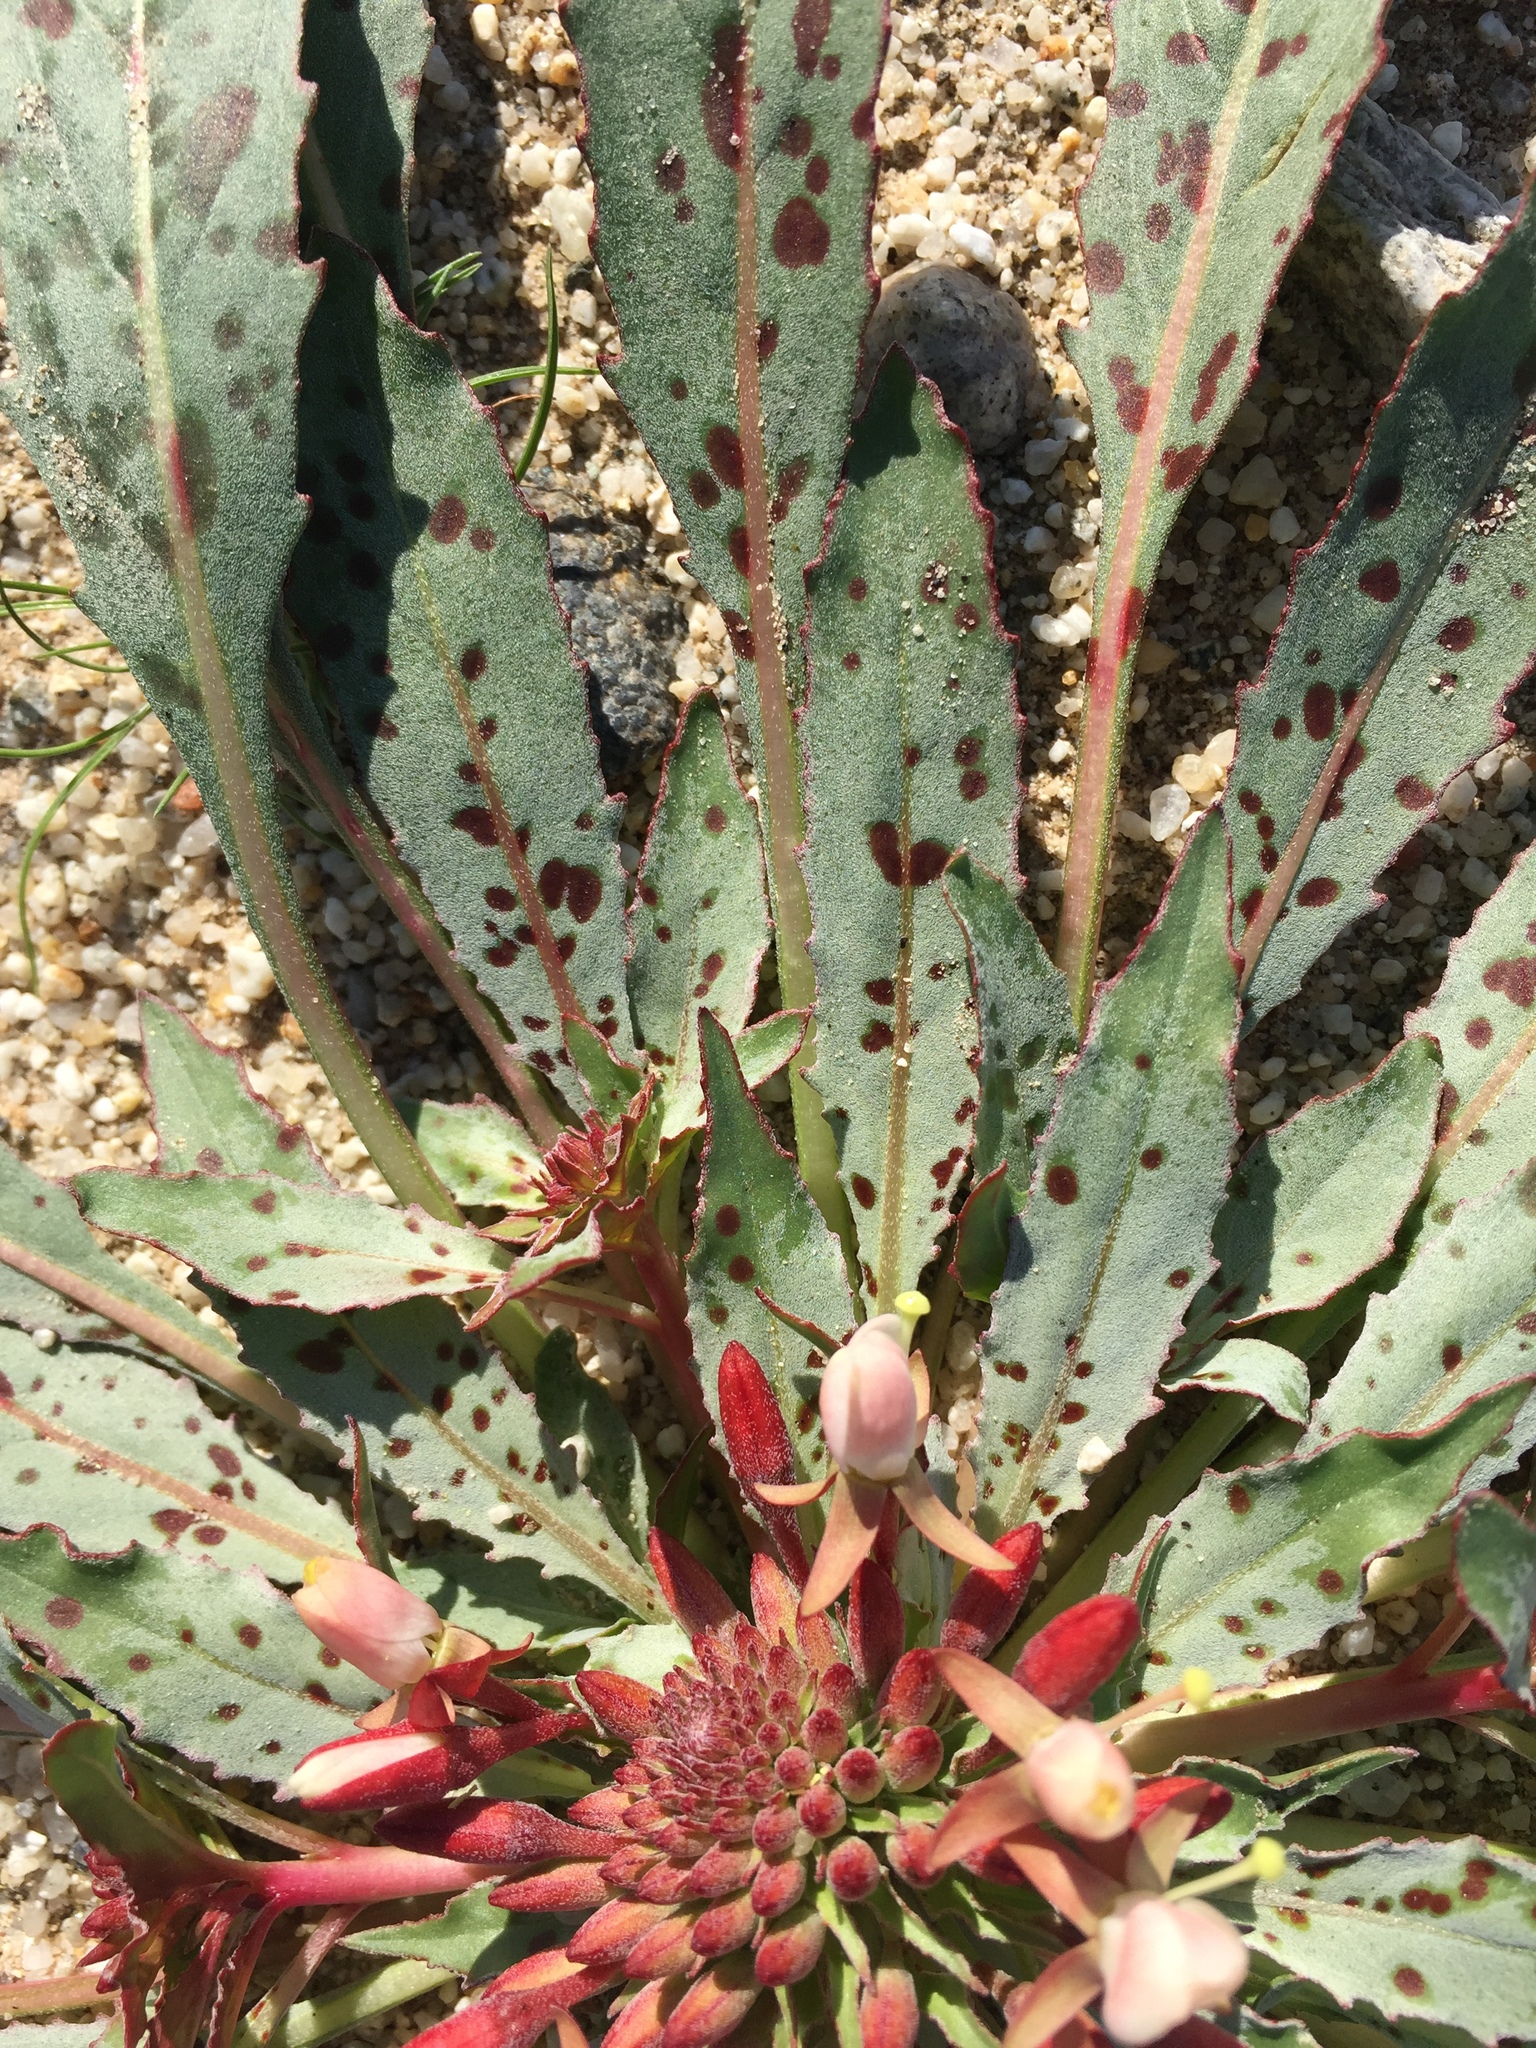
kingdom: Plantae
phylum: Tracheophyta
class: Magnoliopsida
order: Myrtales
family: Onagraceae
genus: Eremothera
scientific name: Eremothera boothii
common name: Booth's evening primrose
